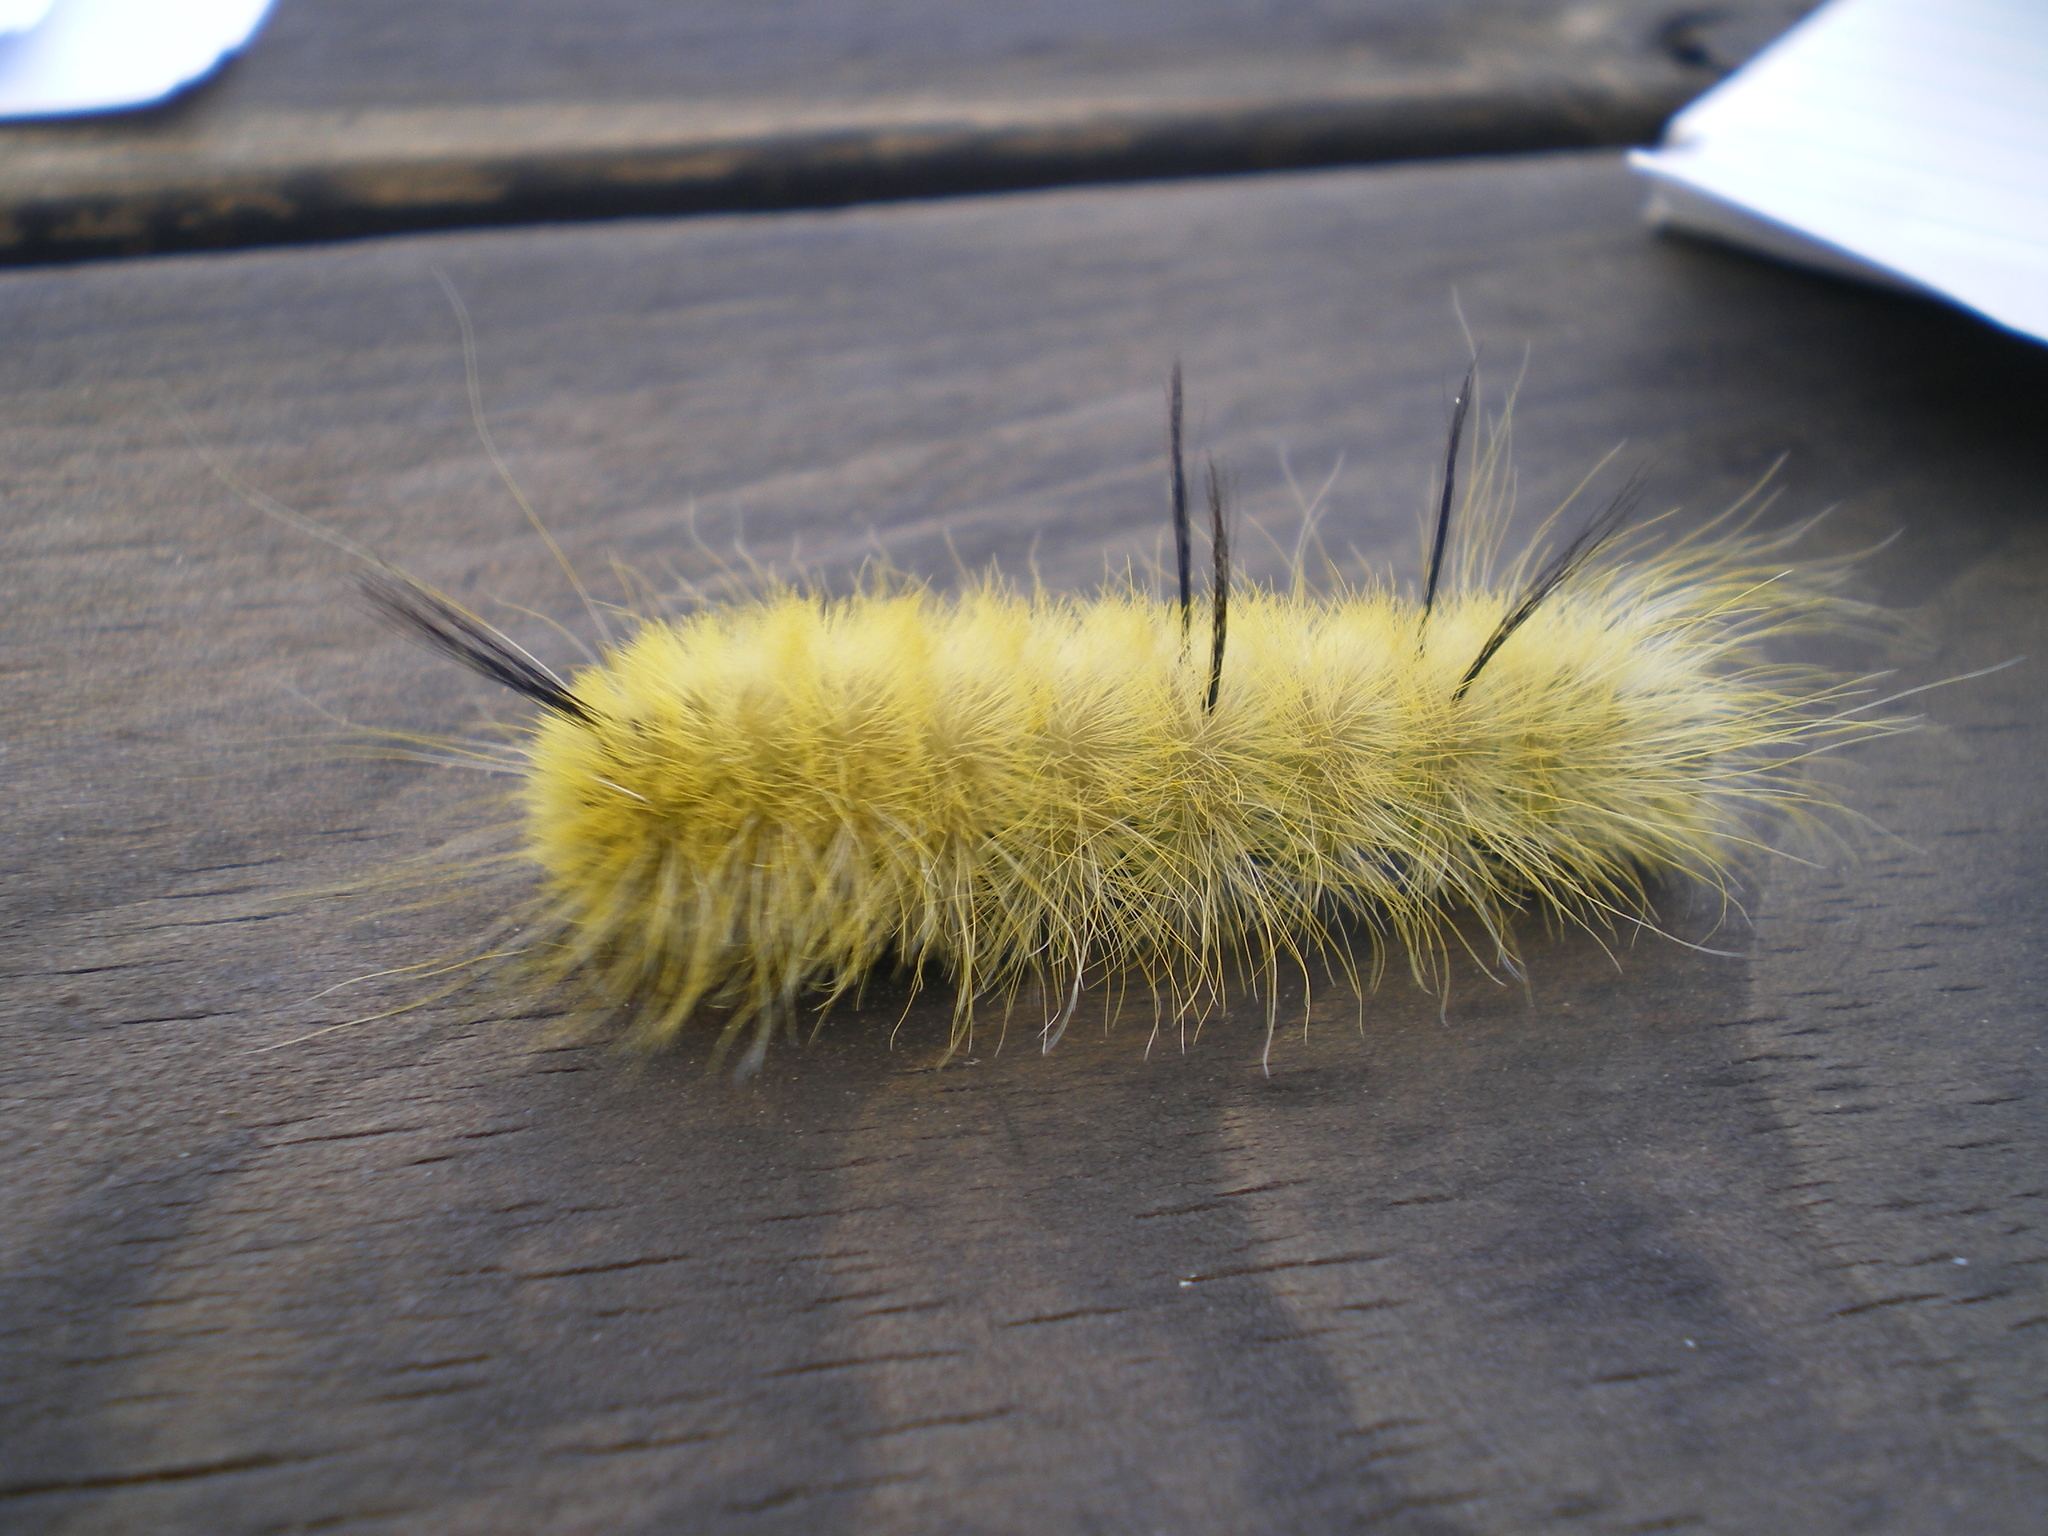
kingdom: Animalia
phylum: Arthropoda
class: Insecta
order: Lepidoptera
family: Noctuidae
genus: Acronicta
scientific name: Acronicta americana
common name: American dagger
